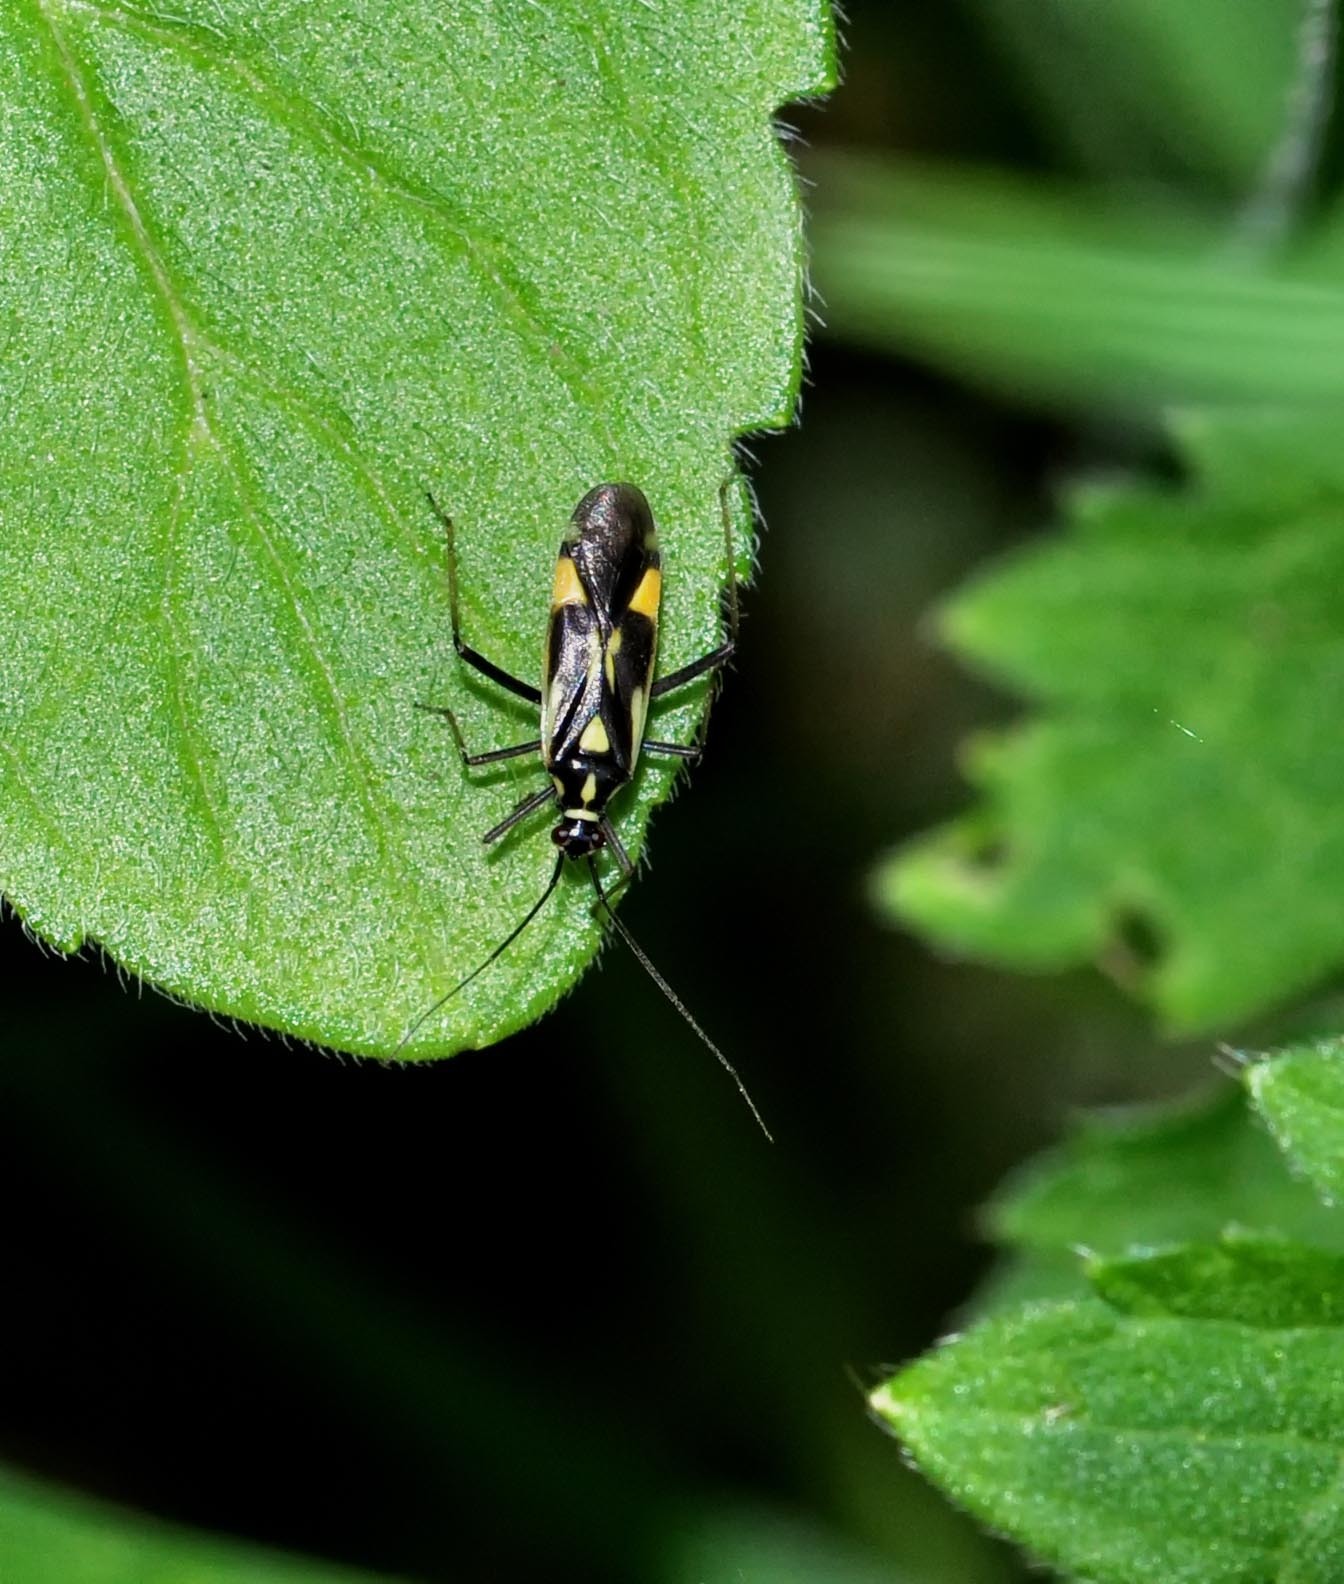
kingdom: Animalia
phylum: Arthropoda
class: Insecta
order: Hemiptera
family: Miridae
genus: Grypocoris
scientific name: Grypocoris stysi
